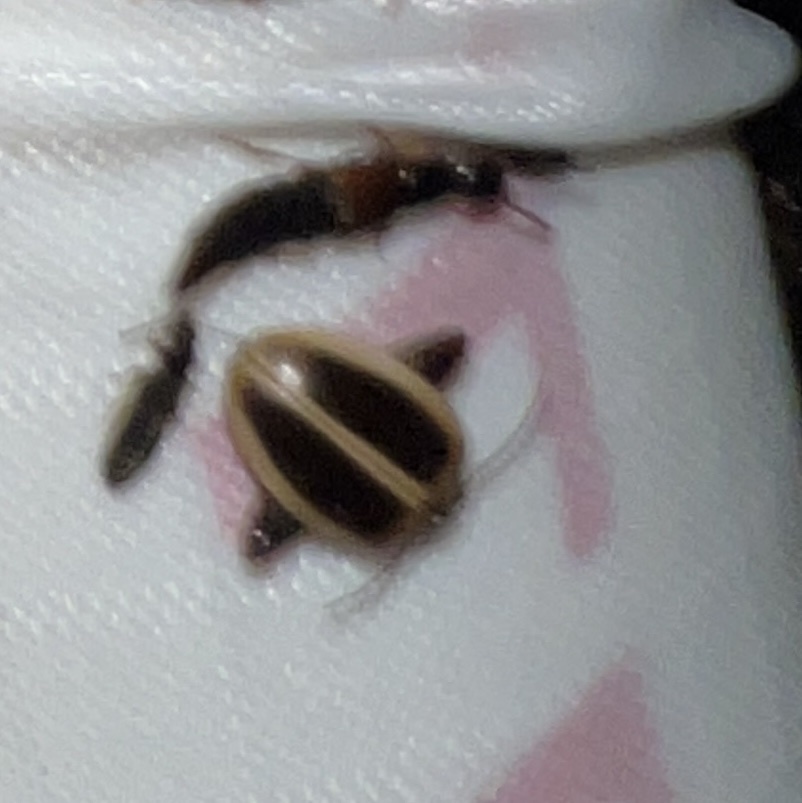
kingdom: Animalia
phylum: Arthropoda
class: Insecta
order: Coleoptera
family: Scirtidae
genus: Ora
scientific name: Ora discoidea
